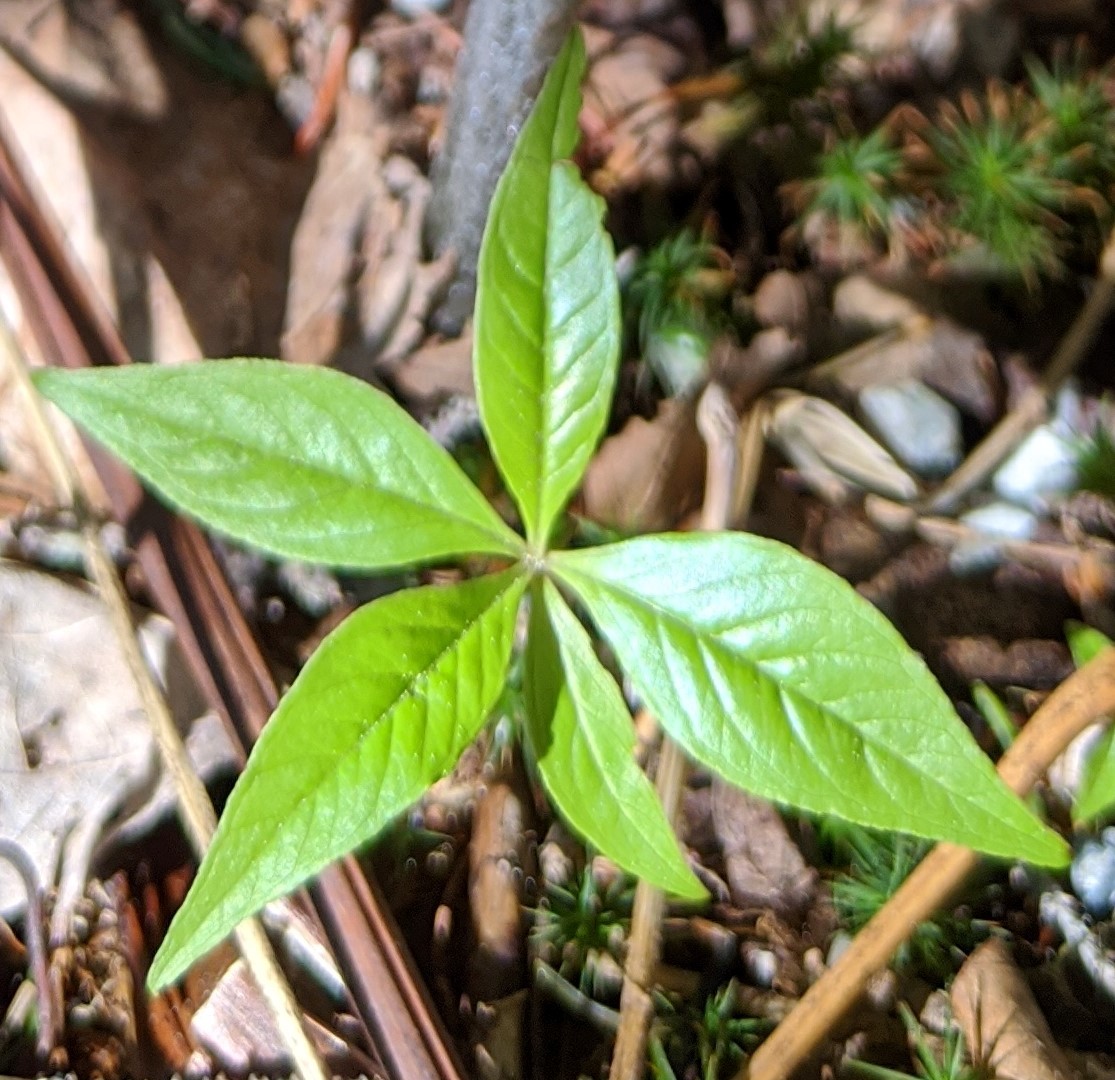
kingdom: Plantae
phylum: Tracheophyta
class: Magnoliopsida
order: Ericales
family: Primulaceae
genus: Lysimachia
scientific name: Lysimachia borealis
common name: American starflower
